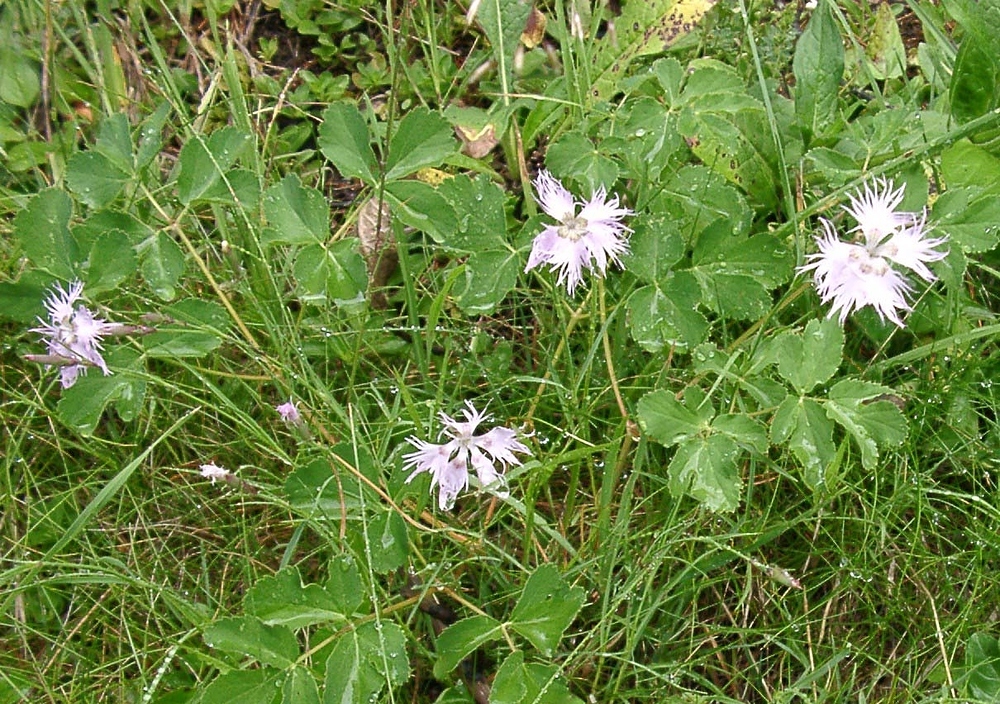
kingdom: Plantae
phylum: Tracheophyta
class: Magnoliopsida
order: Caryophyllales
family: Caryophyllaceae
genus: Dianthus
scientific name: Dianthus hyssopifolius
